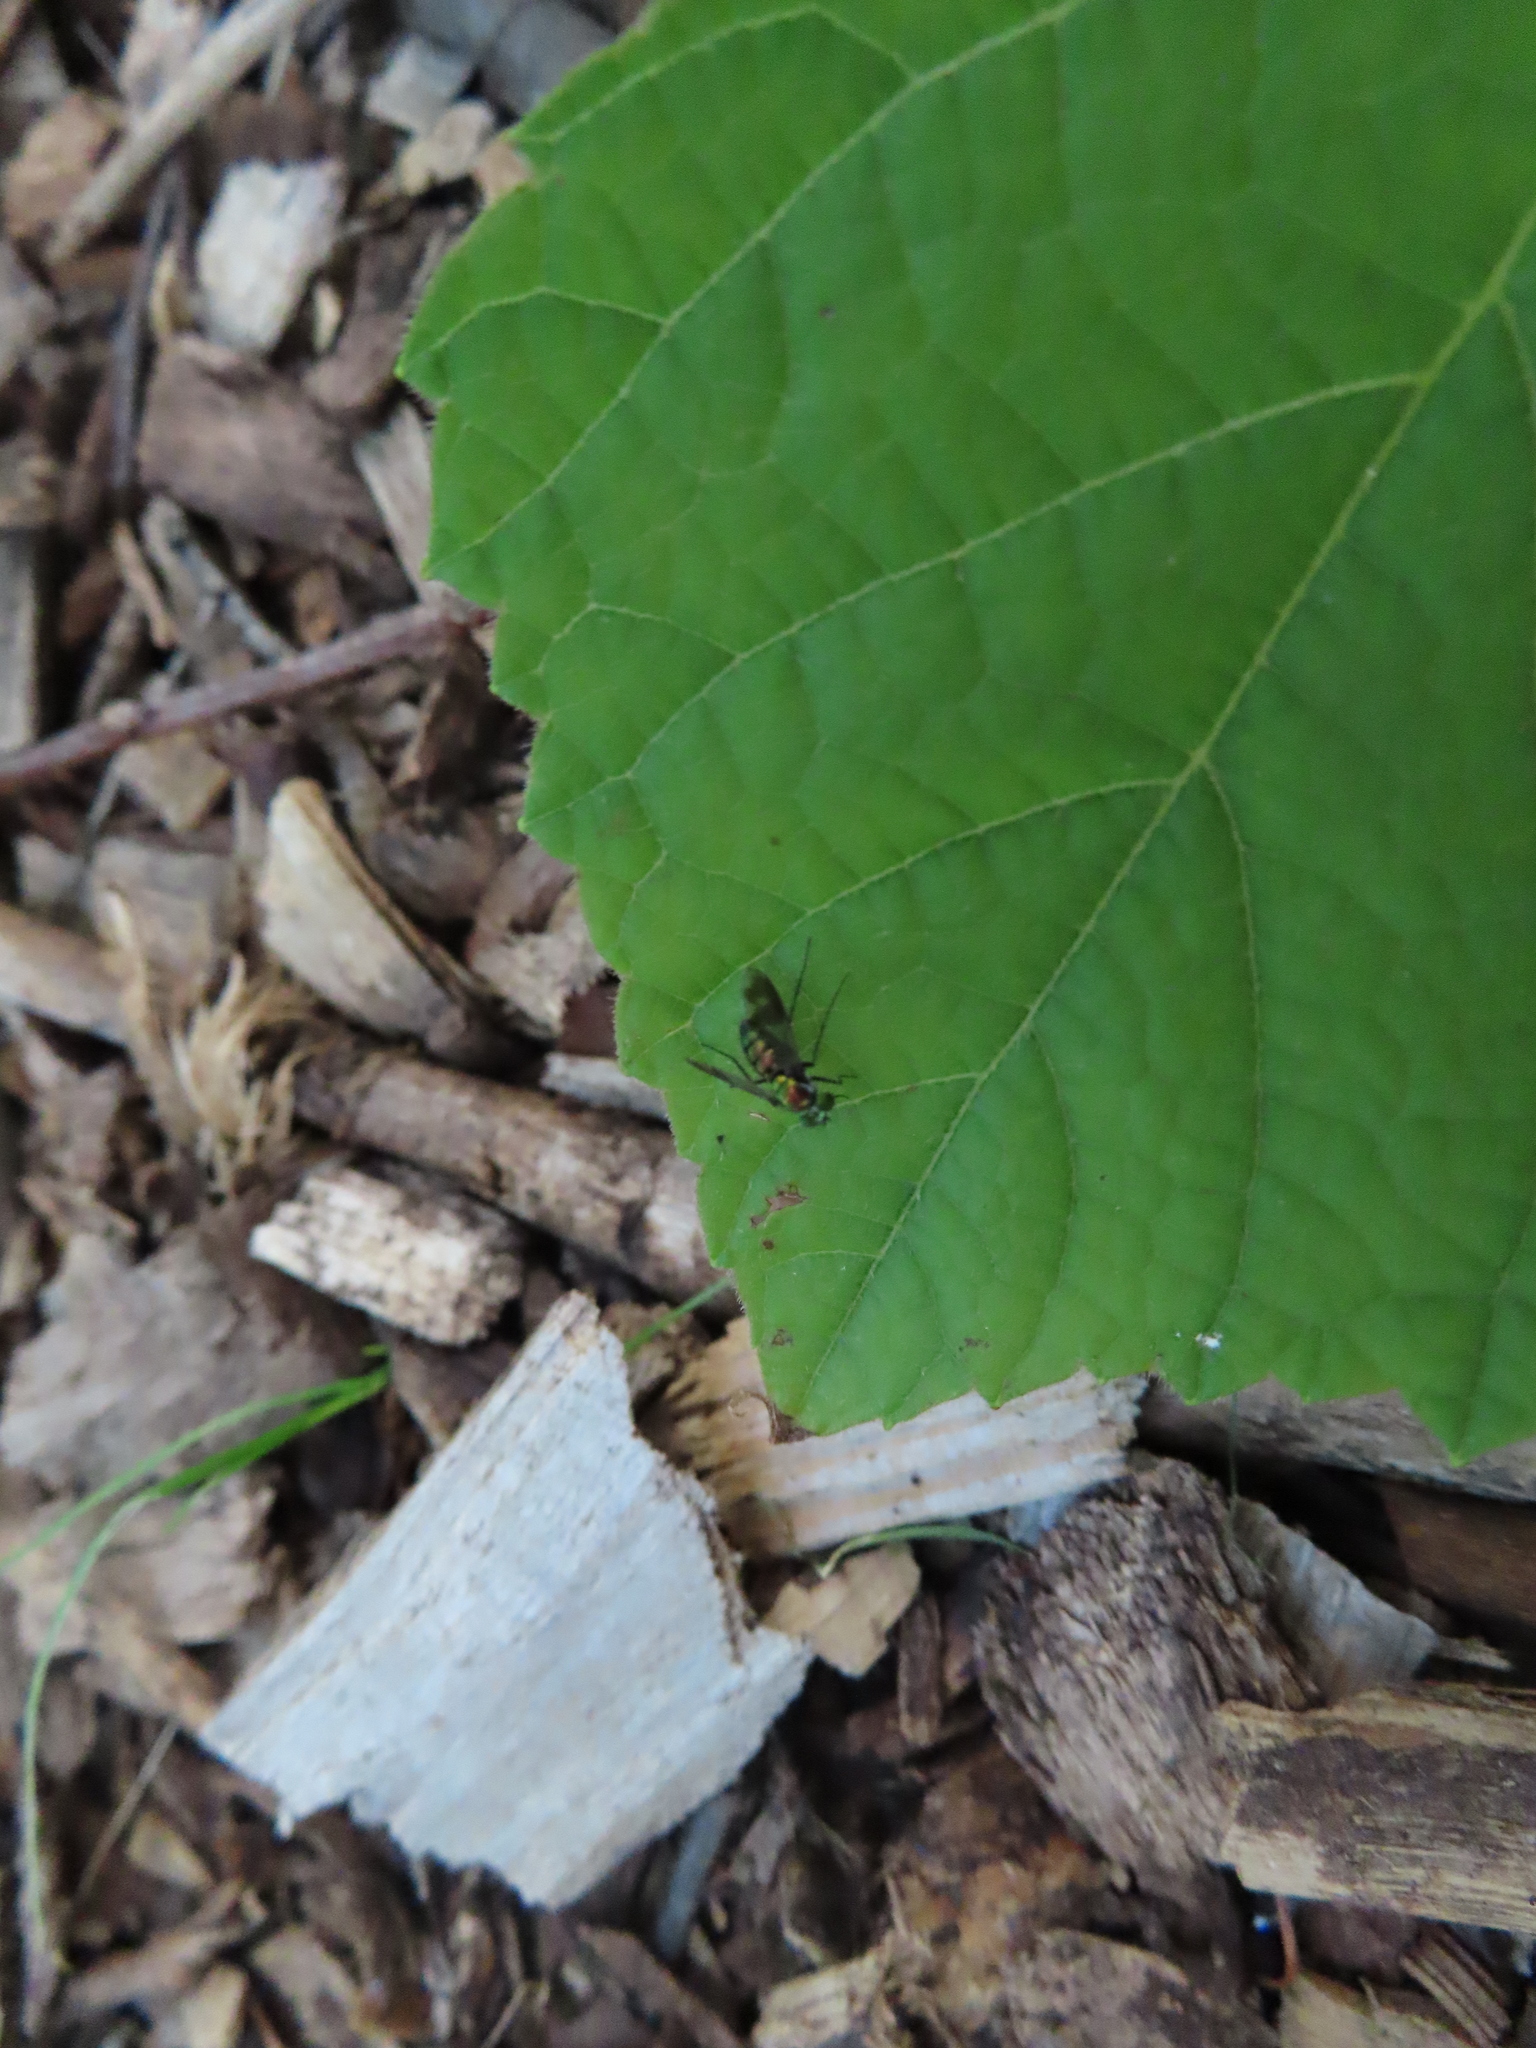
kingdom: Animalia
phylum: Arthropoda
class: Insecta
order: Diptera
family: Dolichopodidae
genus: Condylostylus
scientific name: Condylostylus patibulatus
